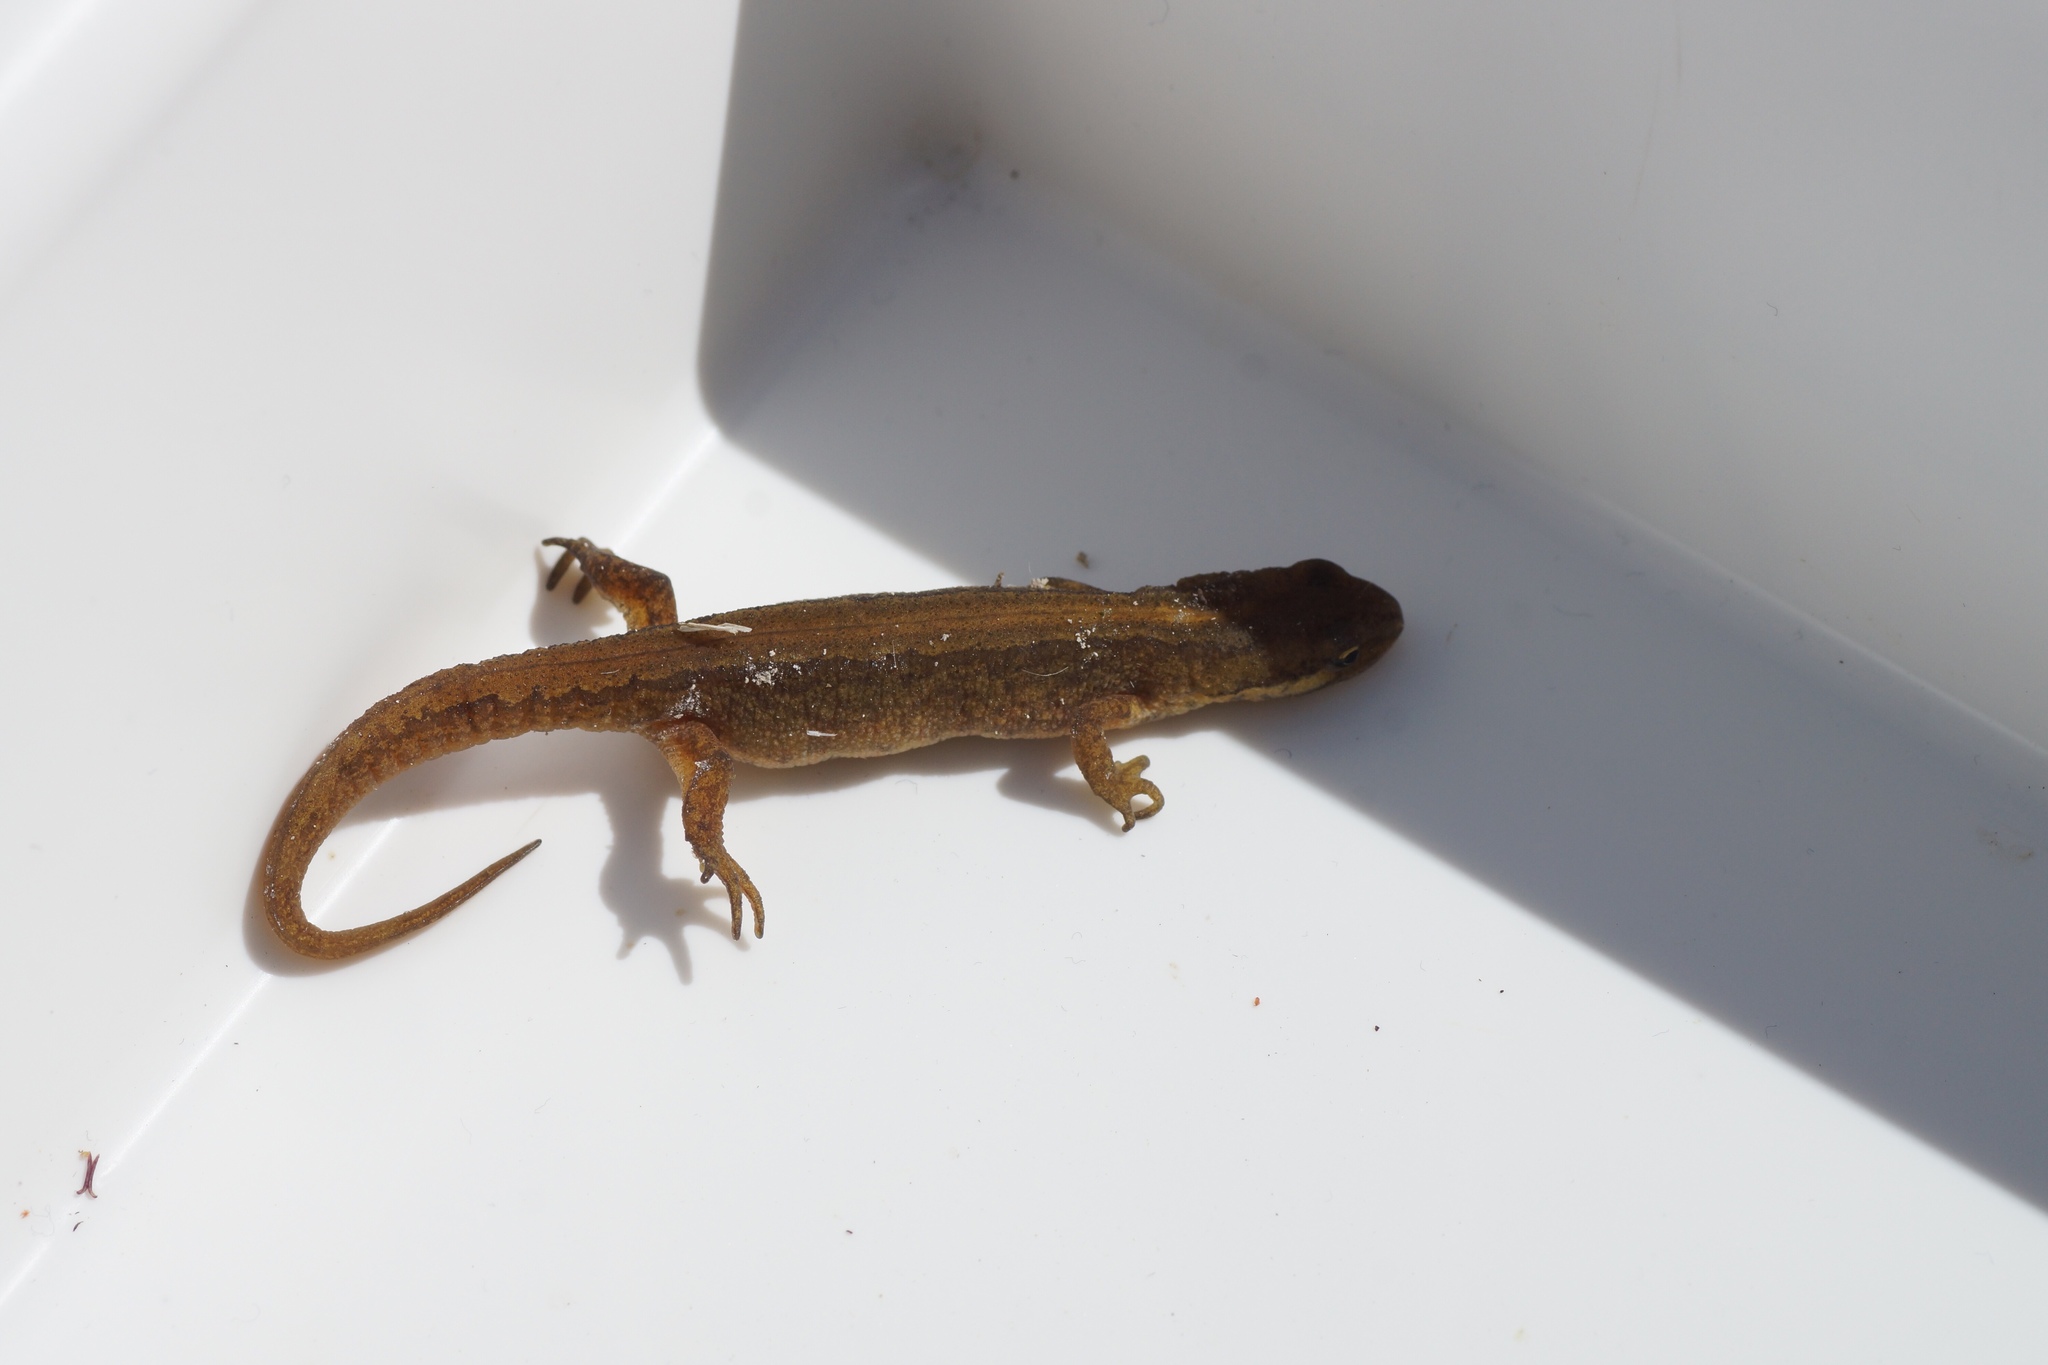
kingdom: Animalia
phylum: Chordata
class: Amphibia
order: Caudata
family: Salamandridae
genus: Lissotriton
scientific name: Lissotriton vulgaris
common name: Smooth newt
